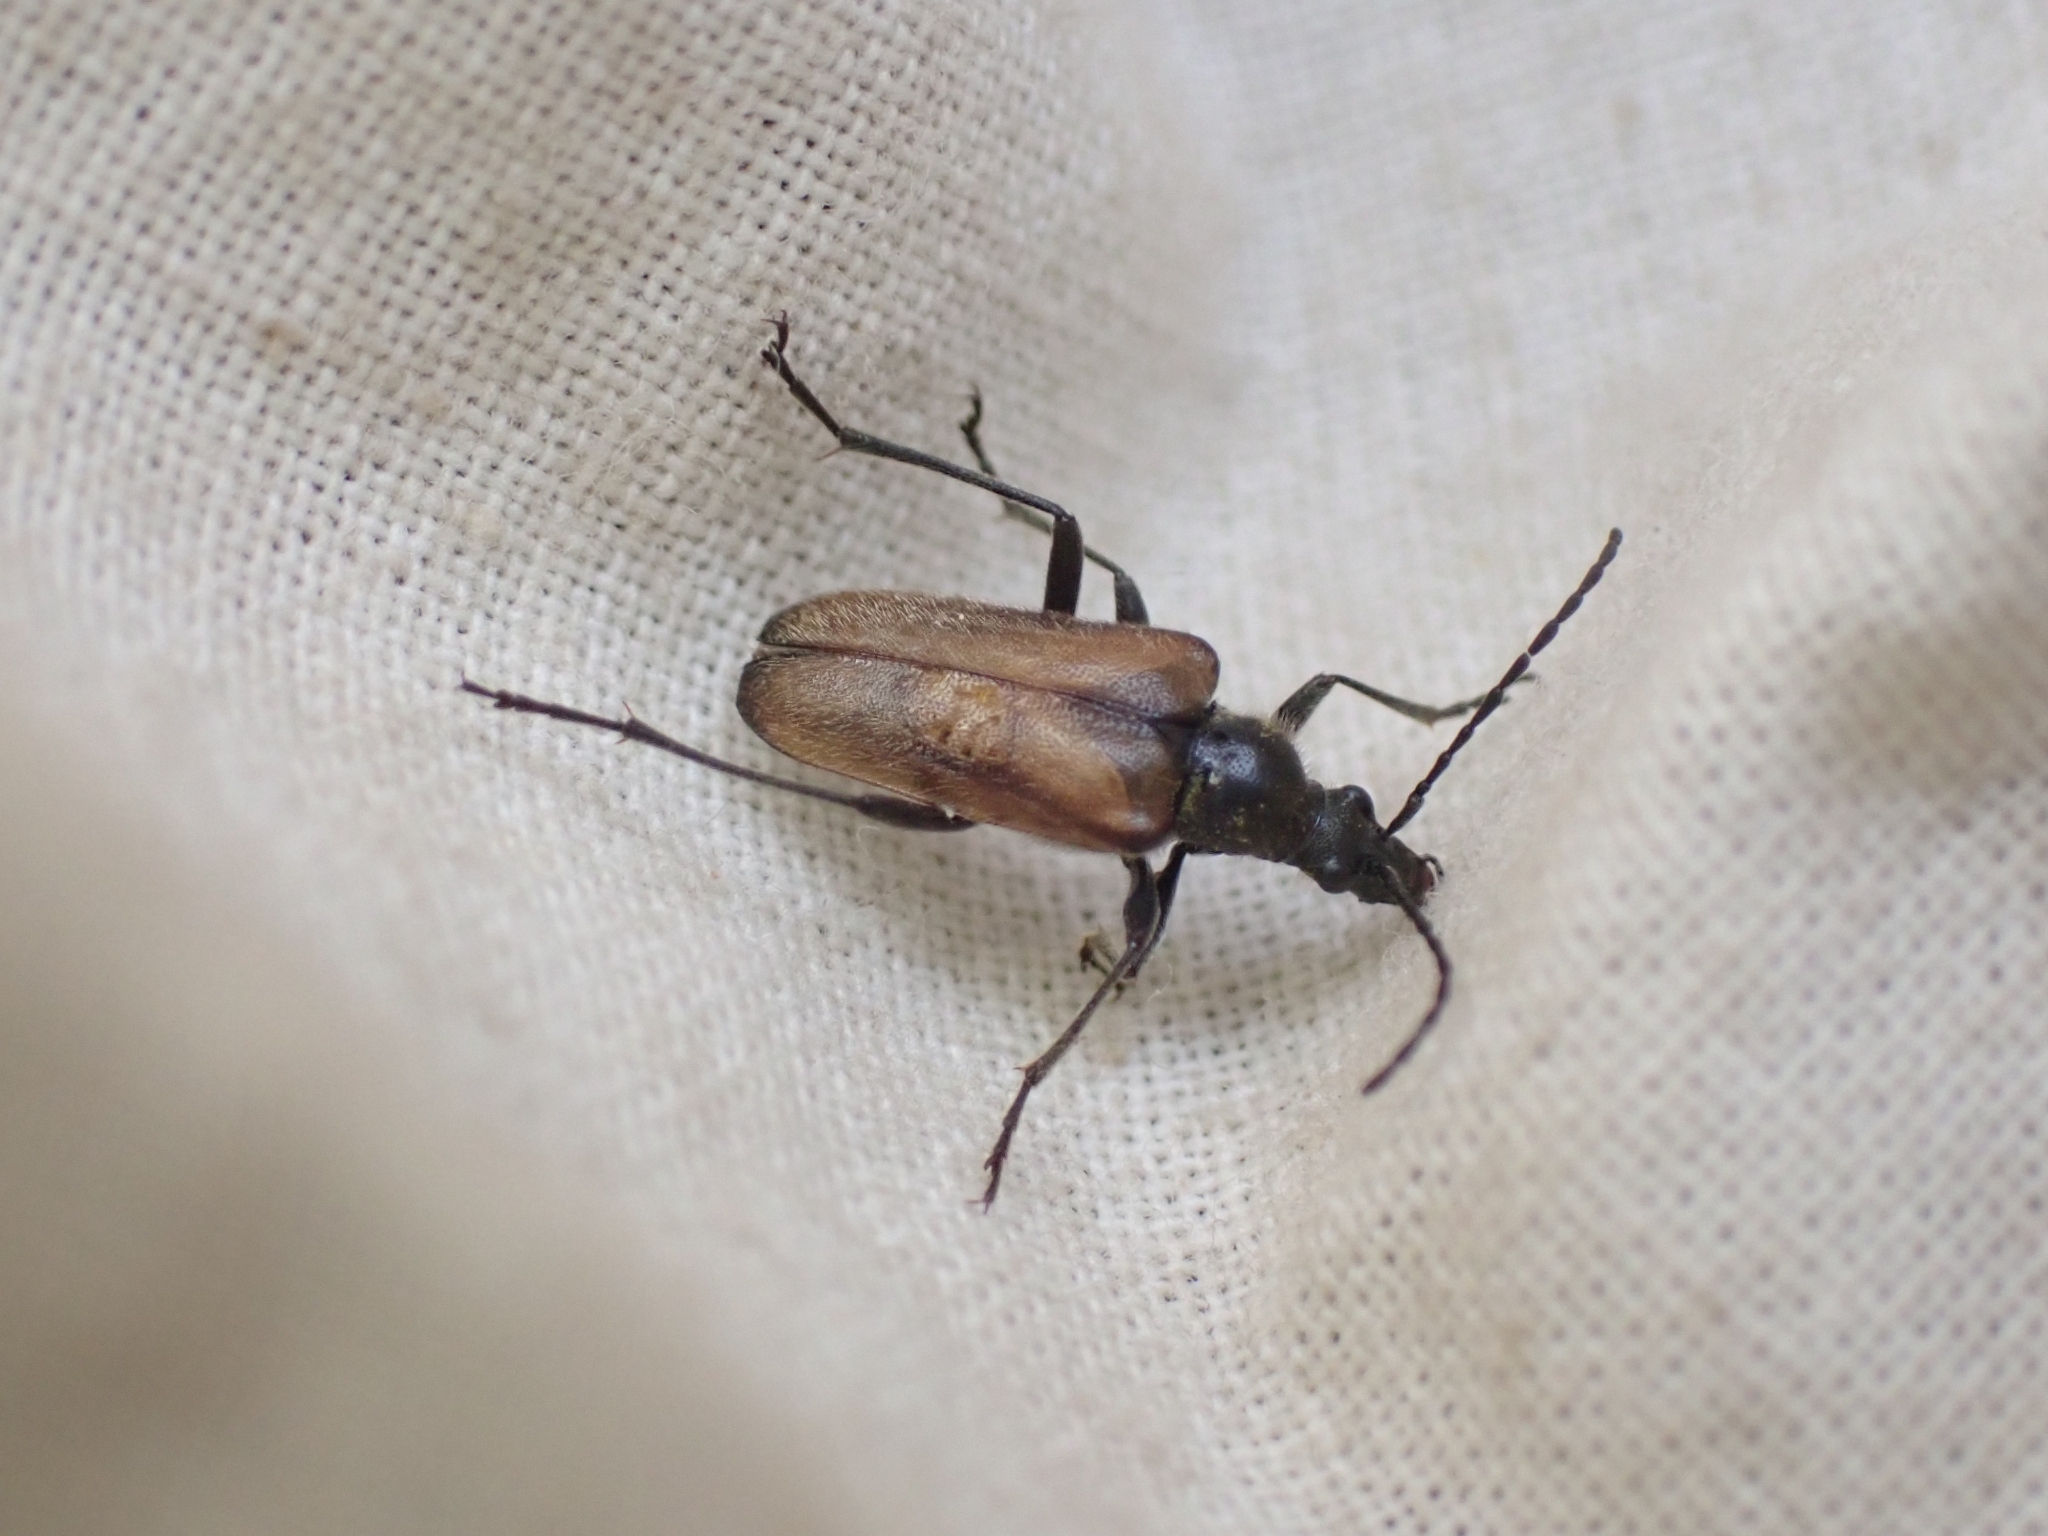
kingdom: Animalia
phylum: Arthropoda
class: Insecta
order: Coleoptera
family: Cerambycidae
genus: Gnathacmaeops
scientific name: Gnathacmaeops pratensis
